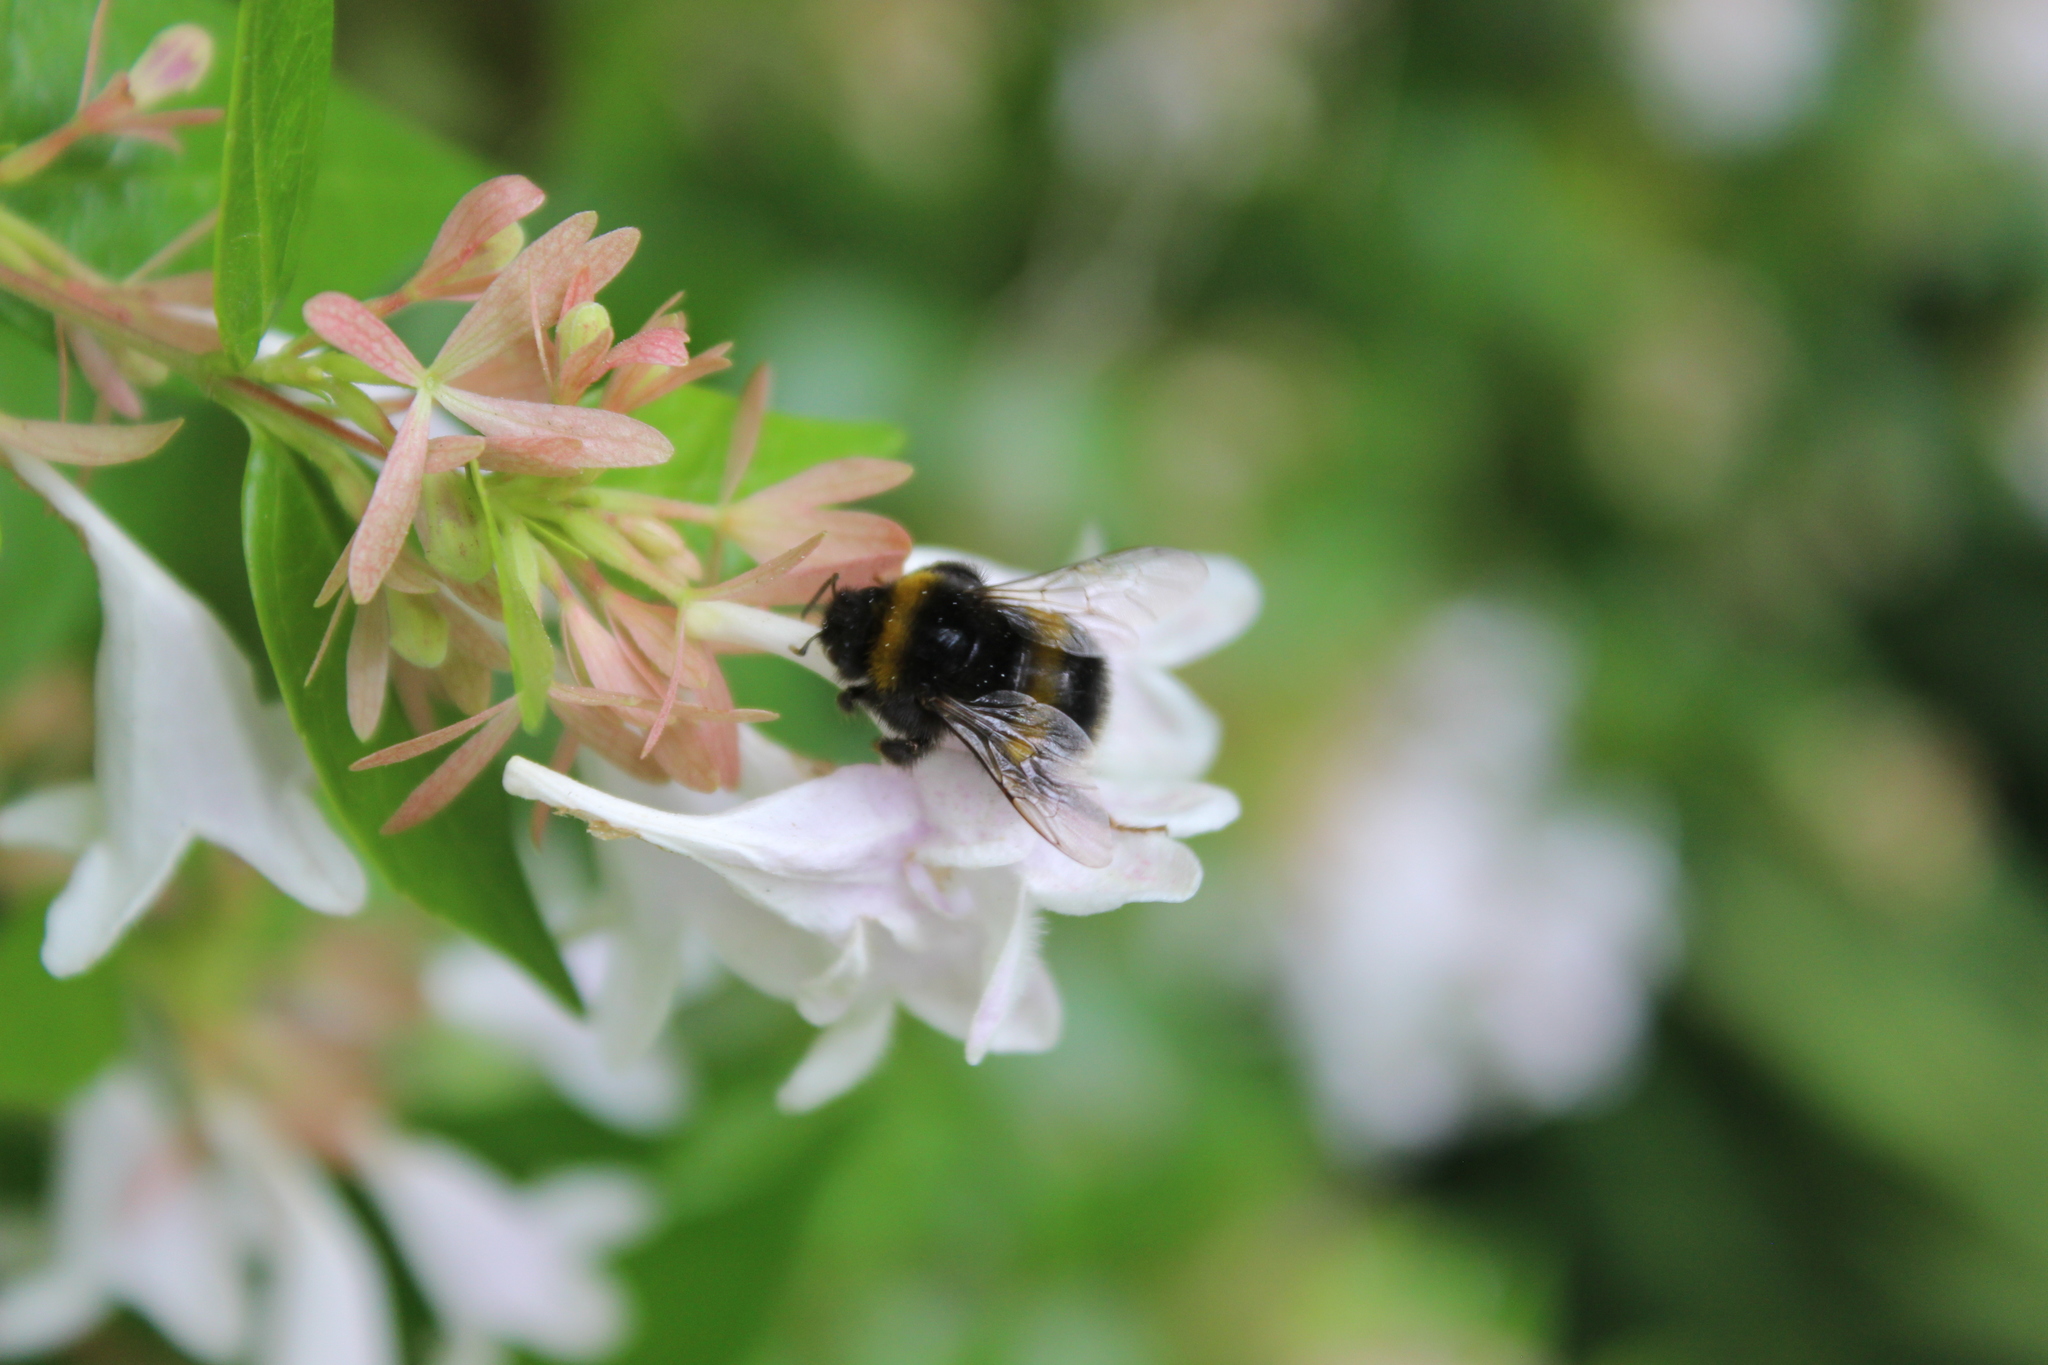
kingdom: Animalia
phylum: Arthropoda
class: Insecta
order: Hymenoptera
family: Apidae
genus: Bombus
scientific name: Bombus terrestris
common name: Buff-tailed bumblebee
